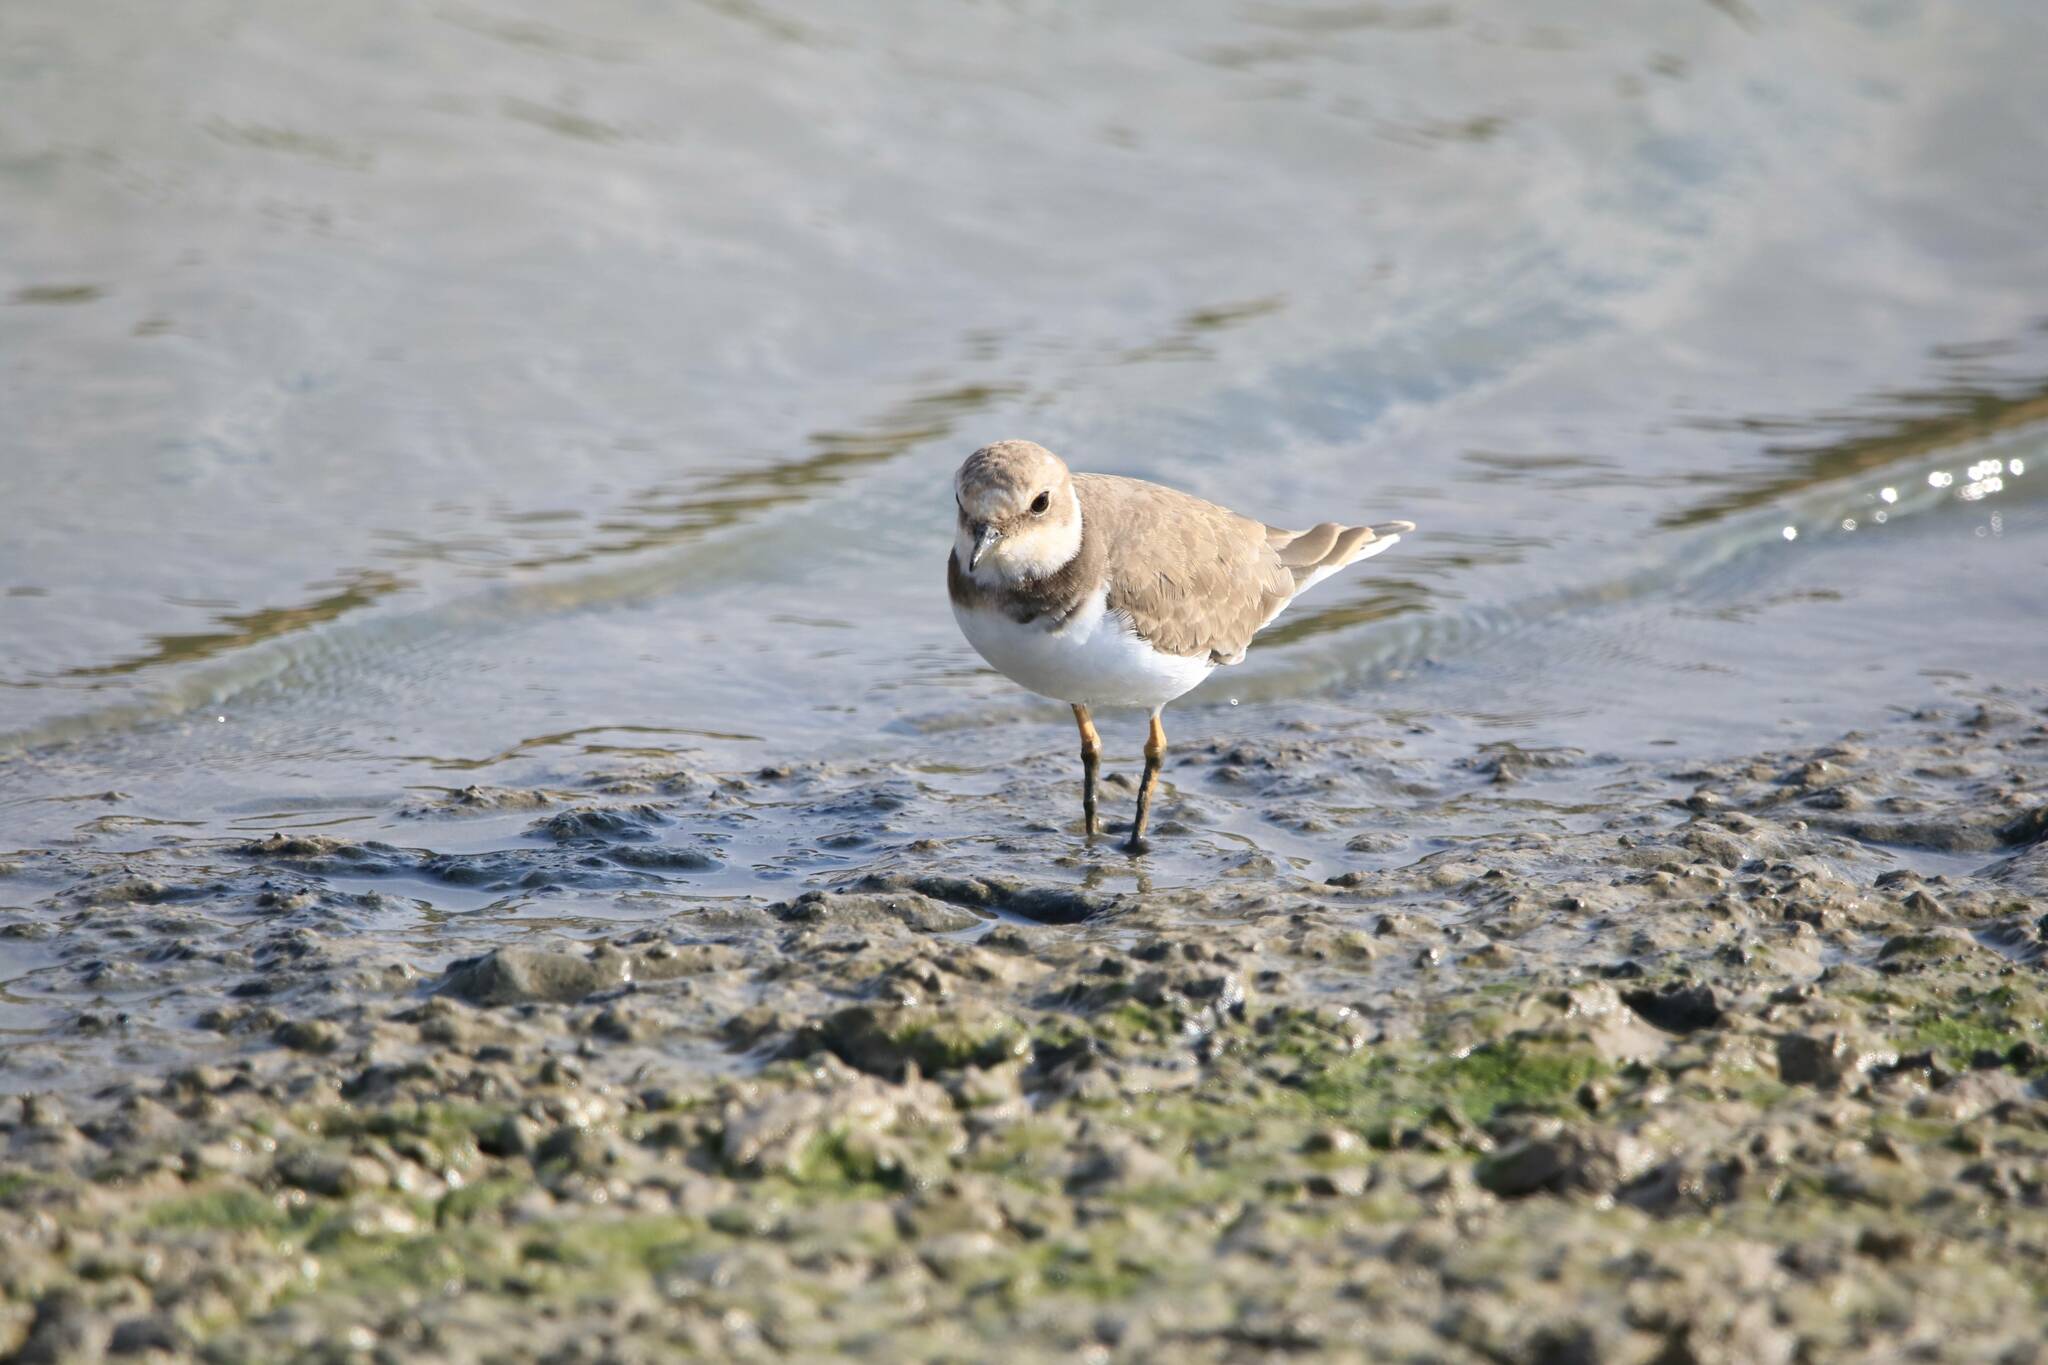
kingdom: Animalia
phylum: Chordata
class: Aves
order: Charadriiformes
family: Charadriidae
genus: Charadrius
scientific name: Charadrius dubius
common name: Little ringed plover
